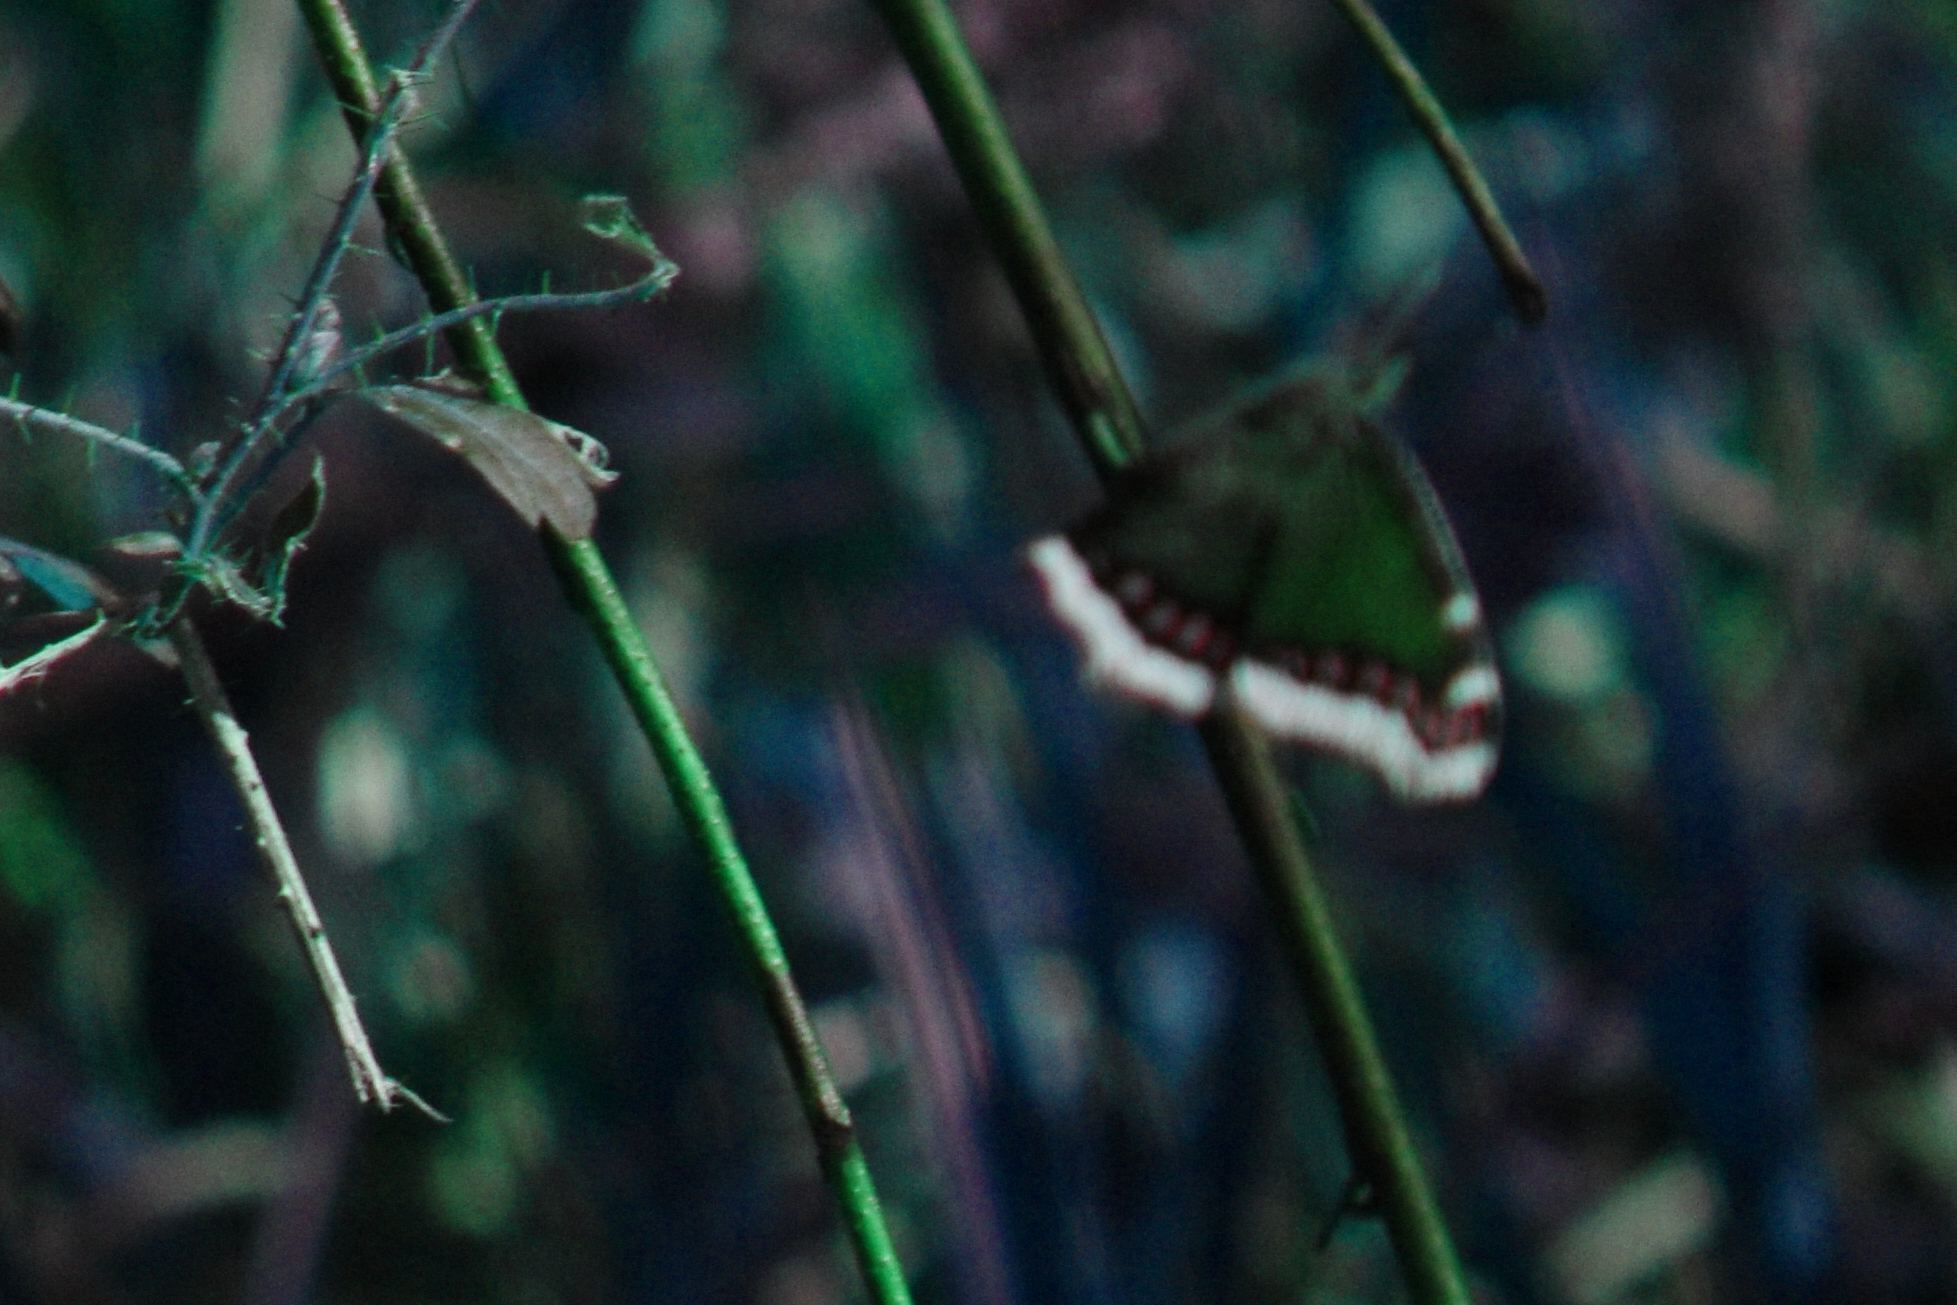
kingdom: Animalia
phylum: Arthropoda
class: Insecta
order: Lepidoptera
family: Nymphalidae
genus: Nymphalis
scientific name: Nymphalis antiopa
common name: Camberwell beauty
